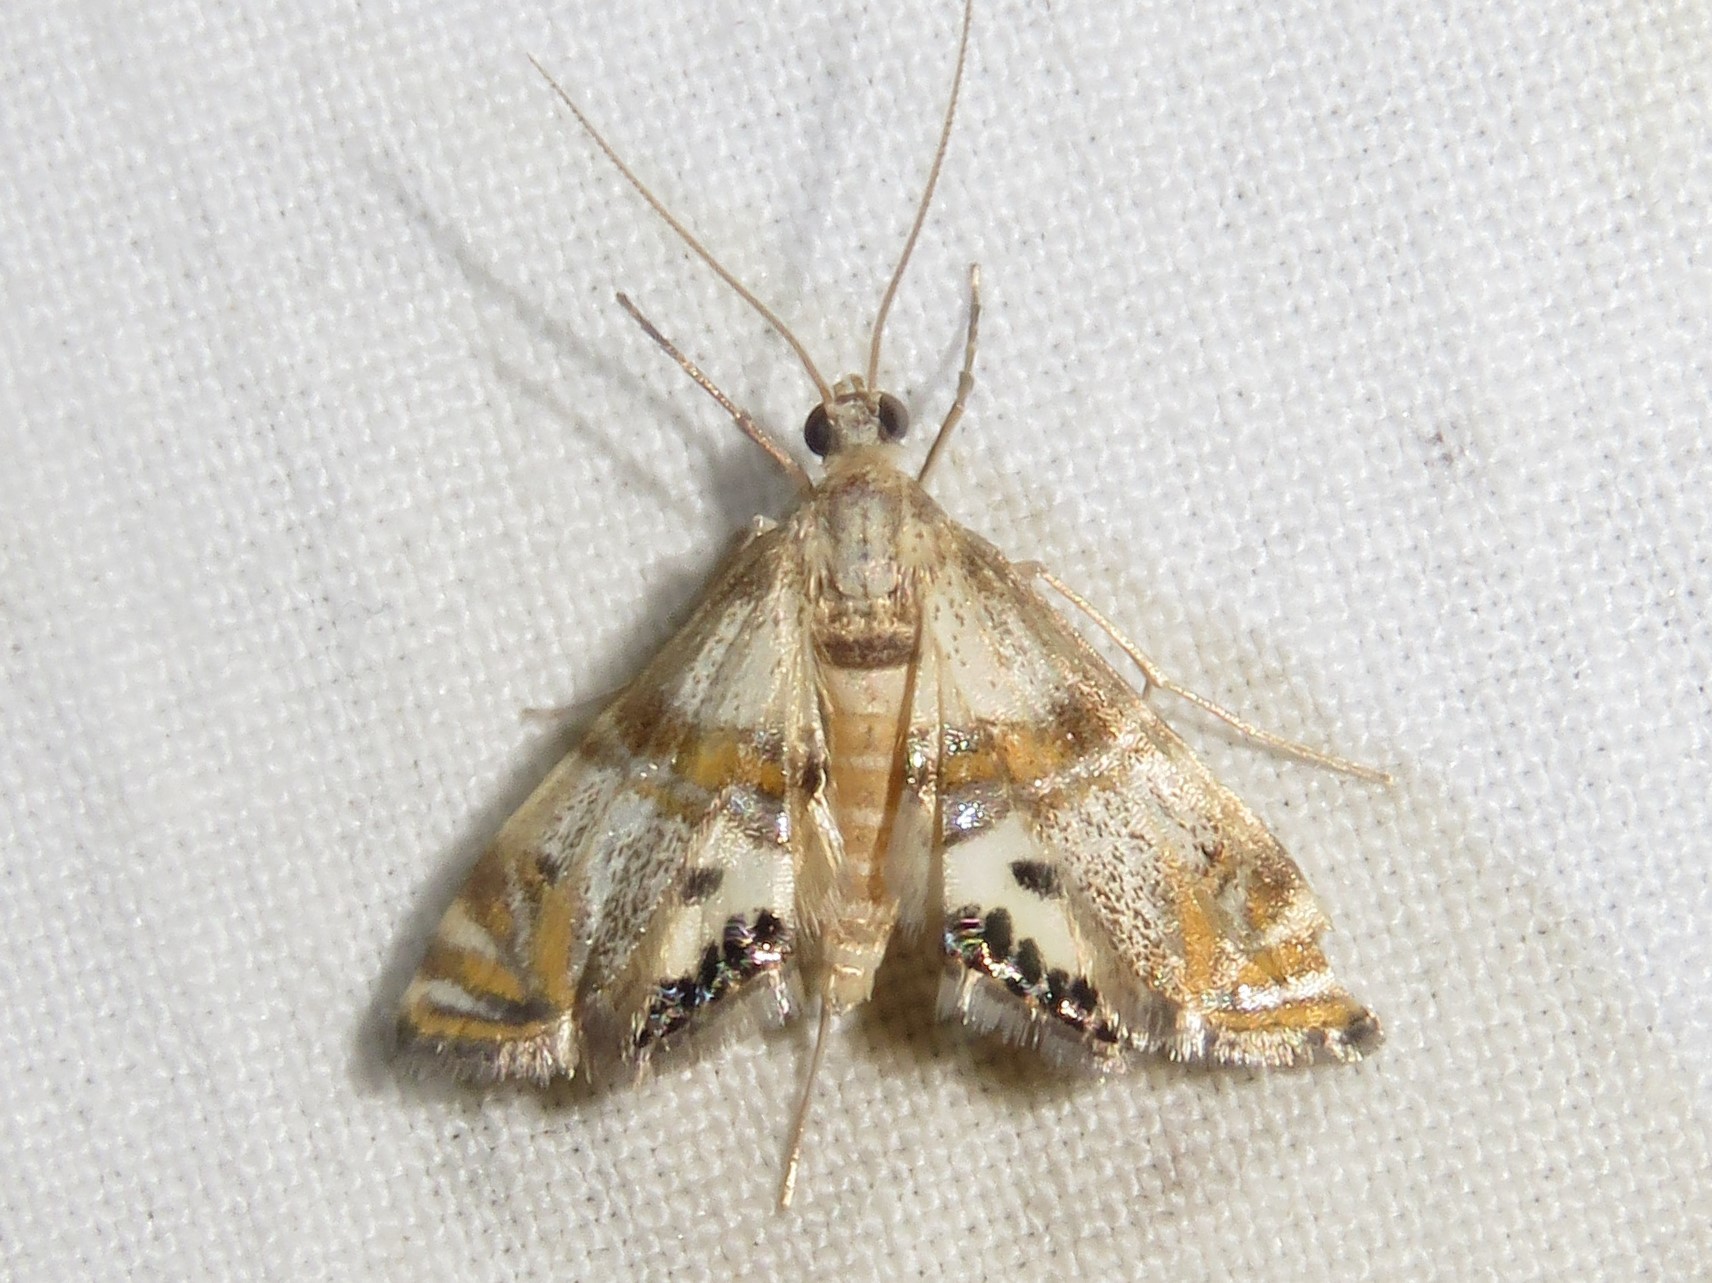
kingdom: Animalia
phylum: Arthropoda
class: Insecta
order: Lepidoptera
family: Crambidae
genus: Petrophila
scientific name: Petrophila bifascialis
